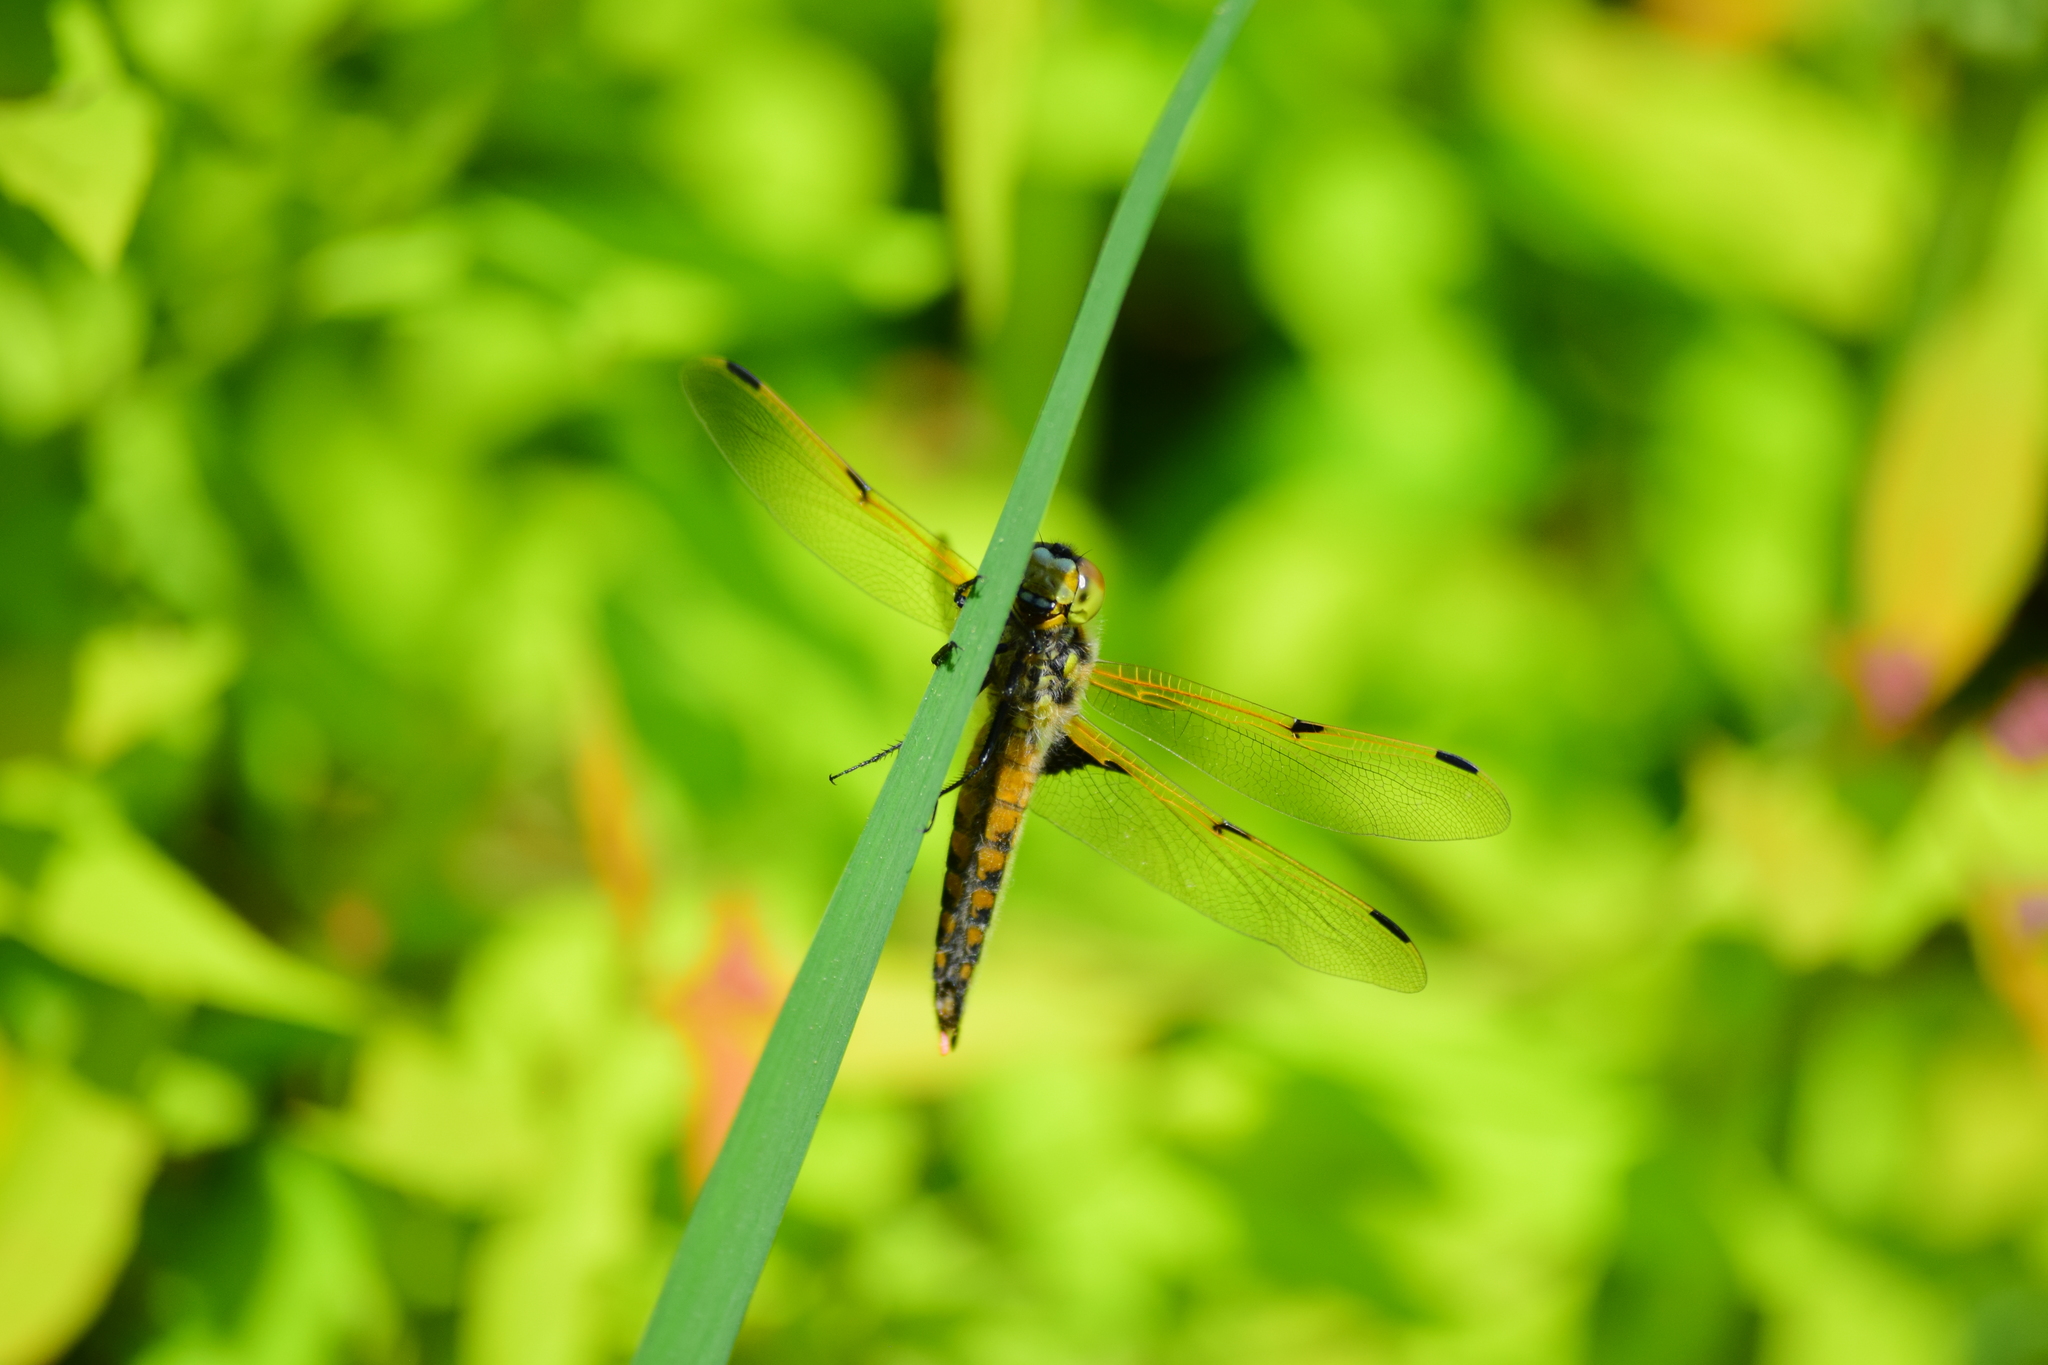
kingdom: Animalia
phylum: Arthropoda
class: Insecta
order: Odonata
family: Libellulidae
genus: Libellula
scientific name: Libellula quadrimaculata
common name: Four-spotted chaser
